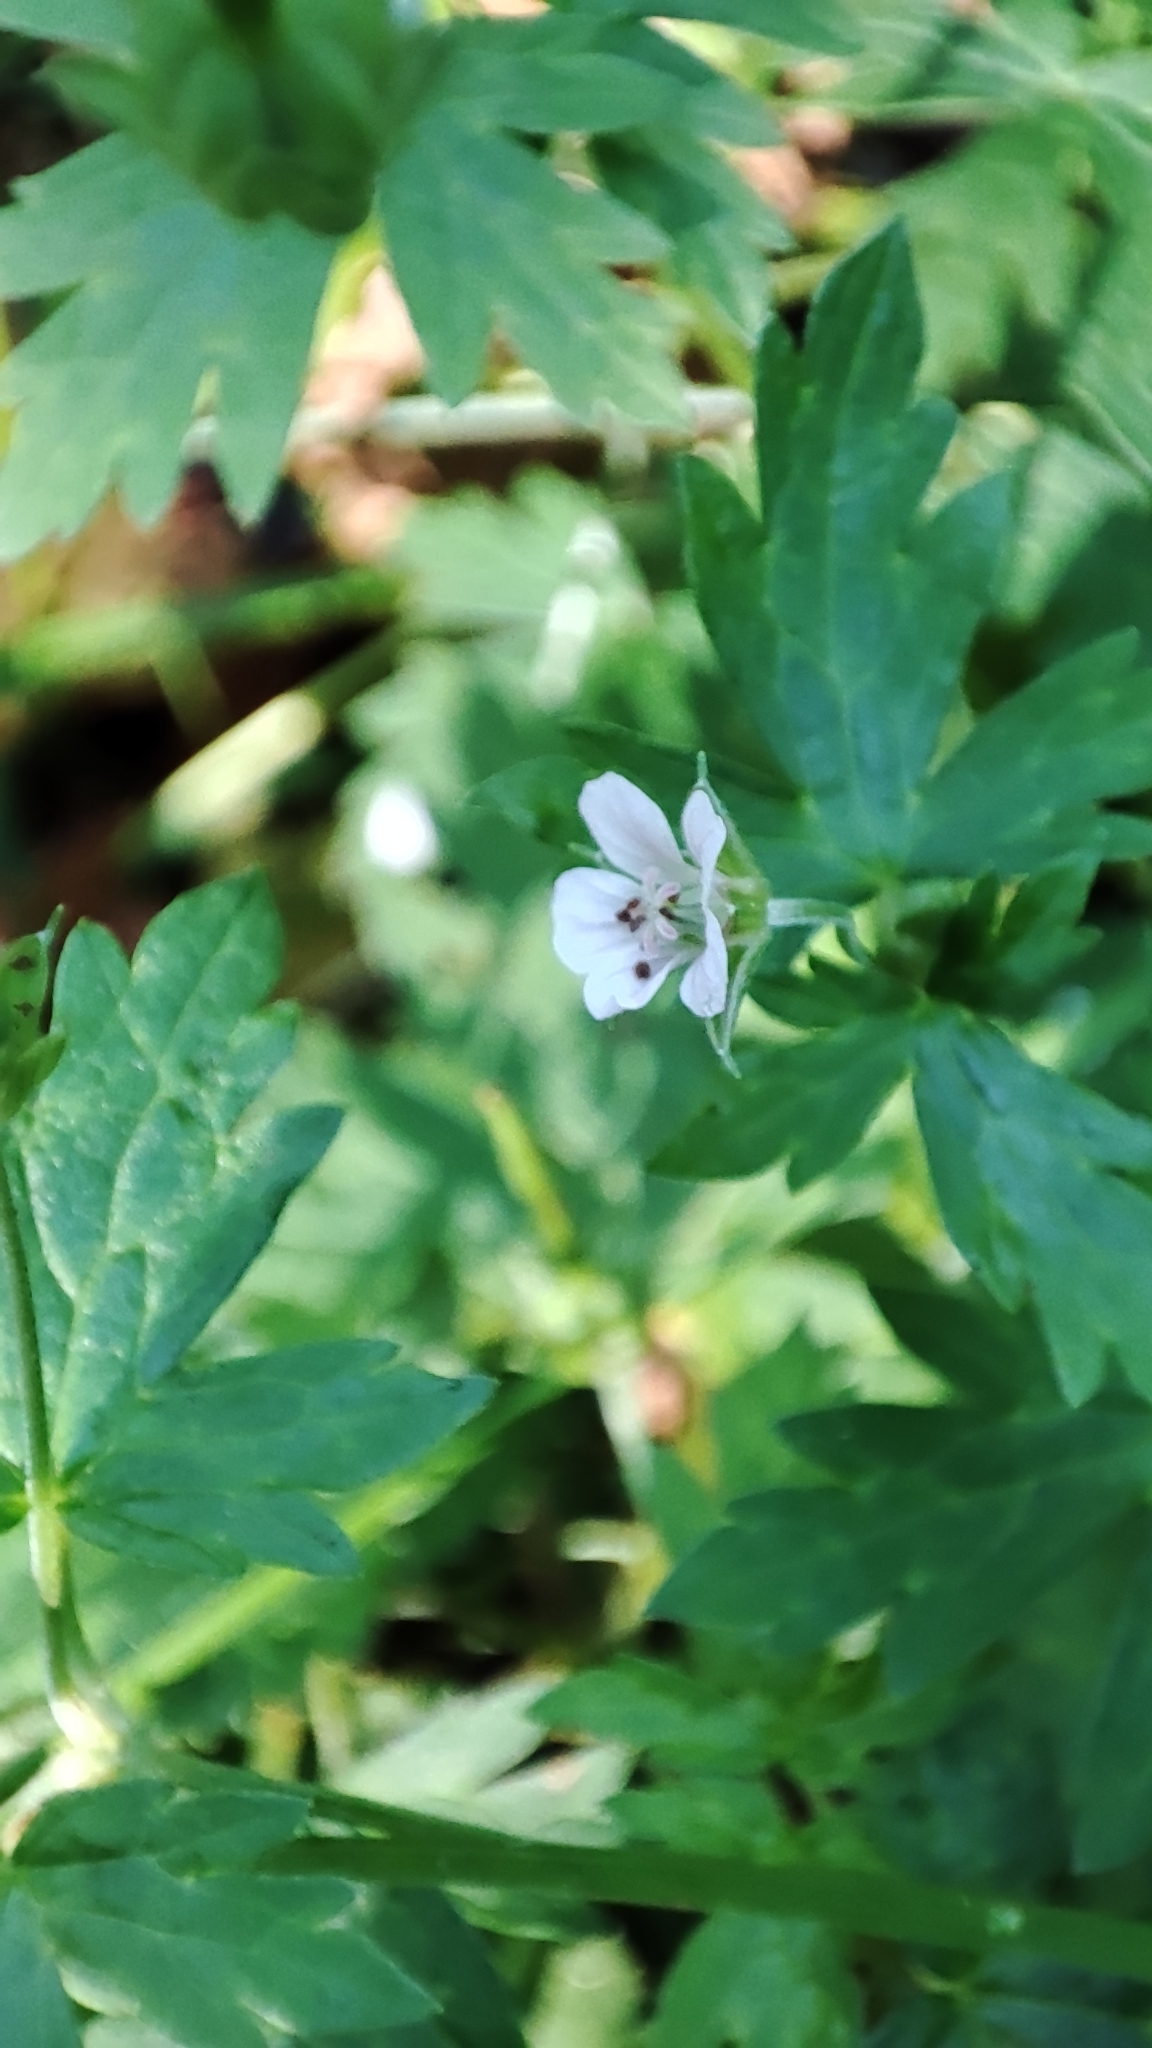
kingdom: Plantae
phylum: Tracheophyta
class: Magnoliopsida
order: Geraniales
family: Geraniaceae
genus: Geranium
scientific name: Geranium sibiricum
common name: Siberian crane's-bill
